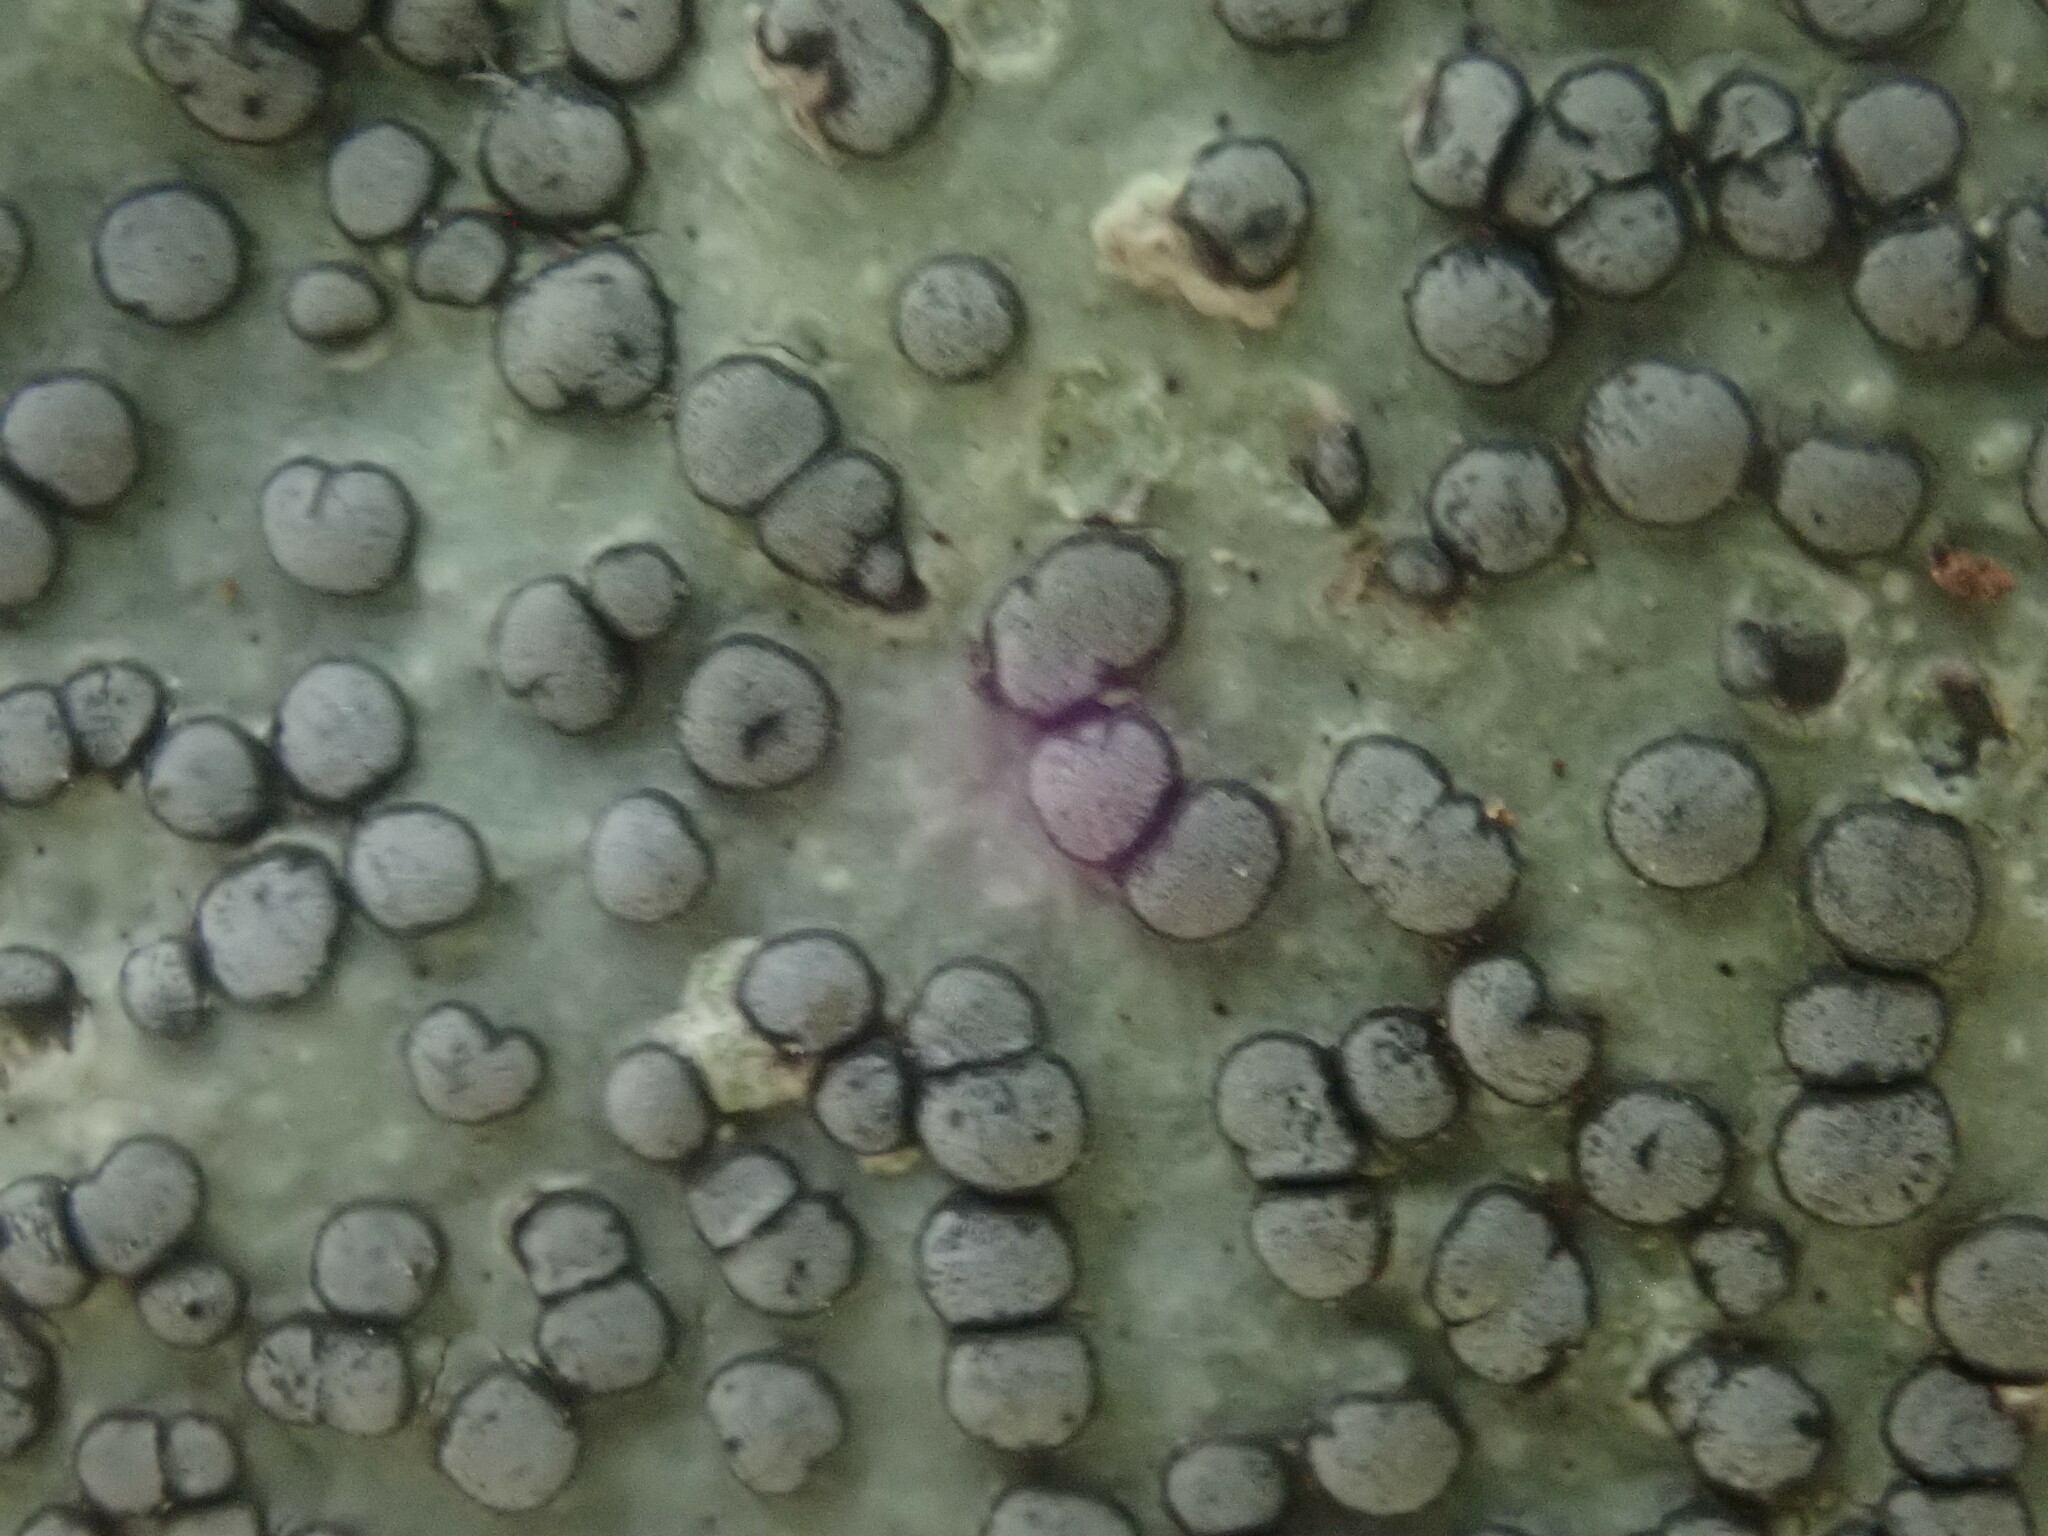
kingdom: Fungi
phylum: Ascomycota
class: Lecanoromycetes
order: Lecideales
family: Lecideaceae
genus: Porpidia
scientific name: Porpidia albocaerulescens
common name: Smokey-eyed boulder lichen
